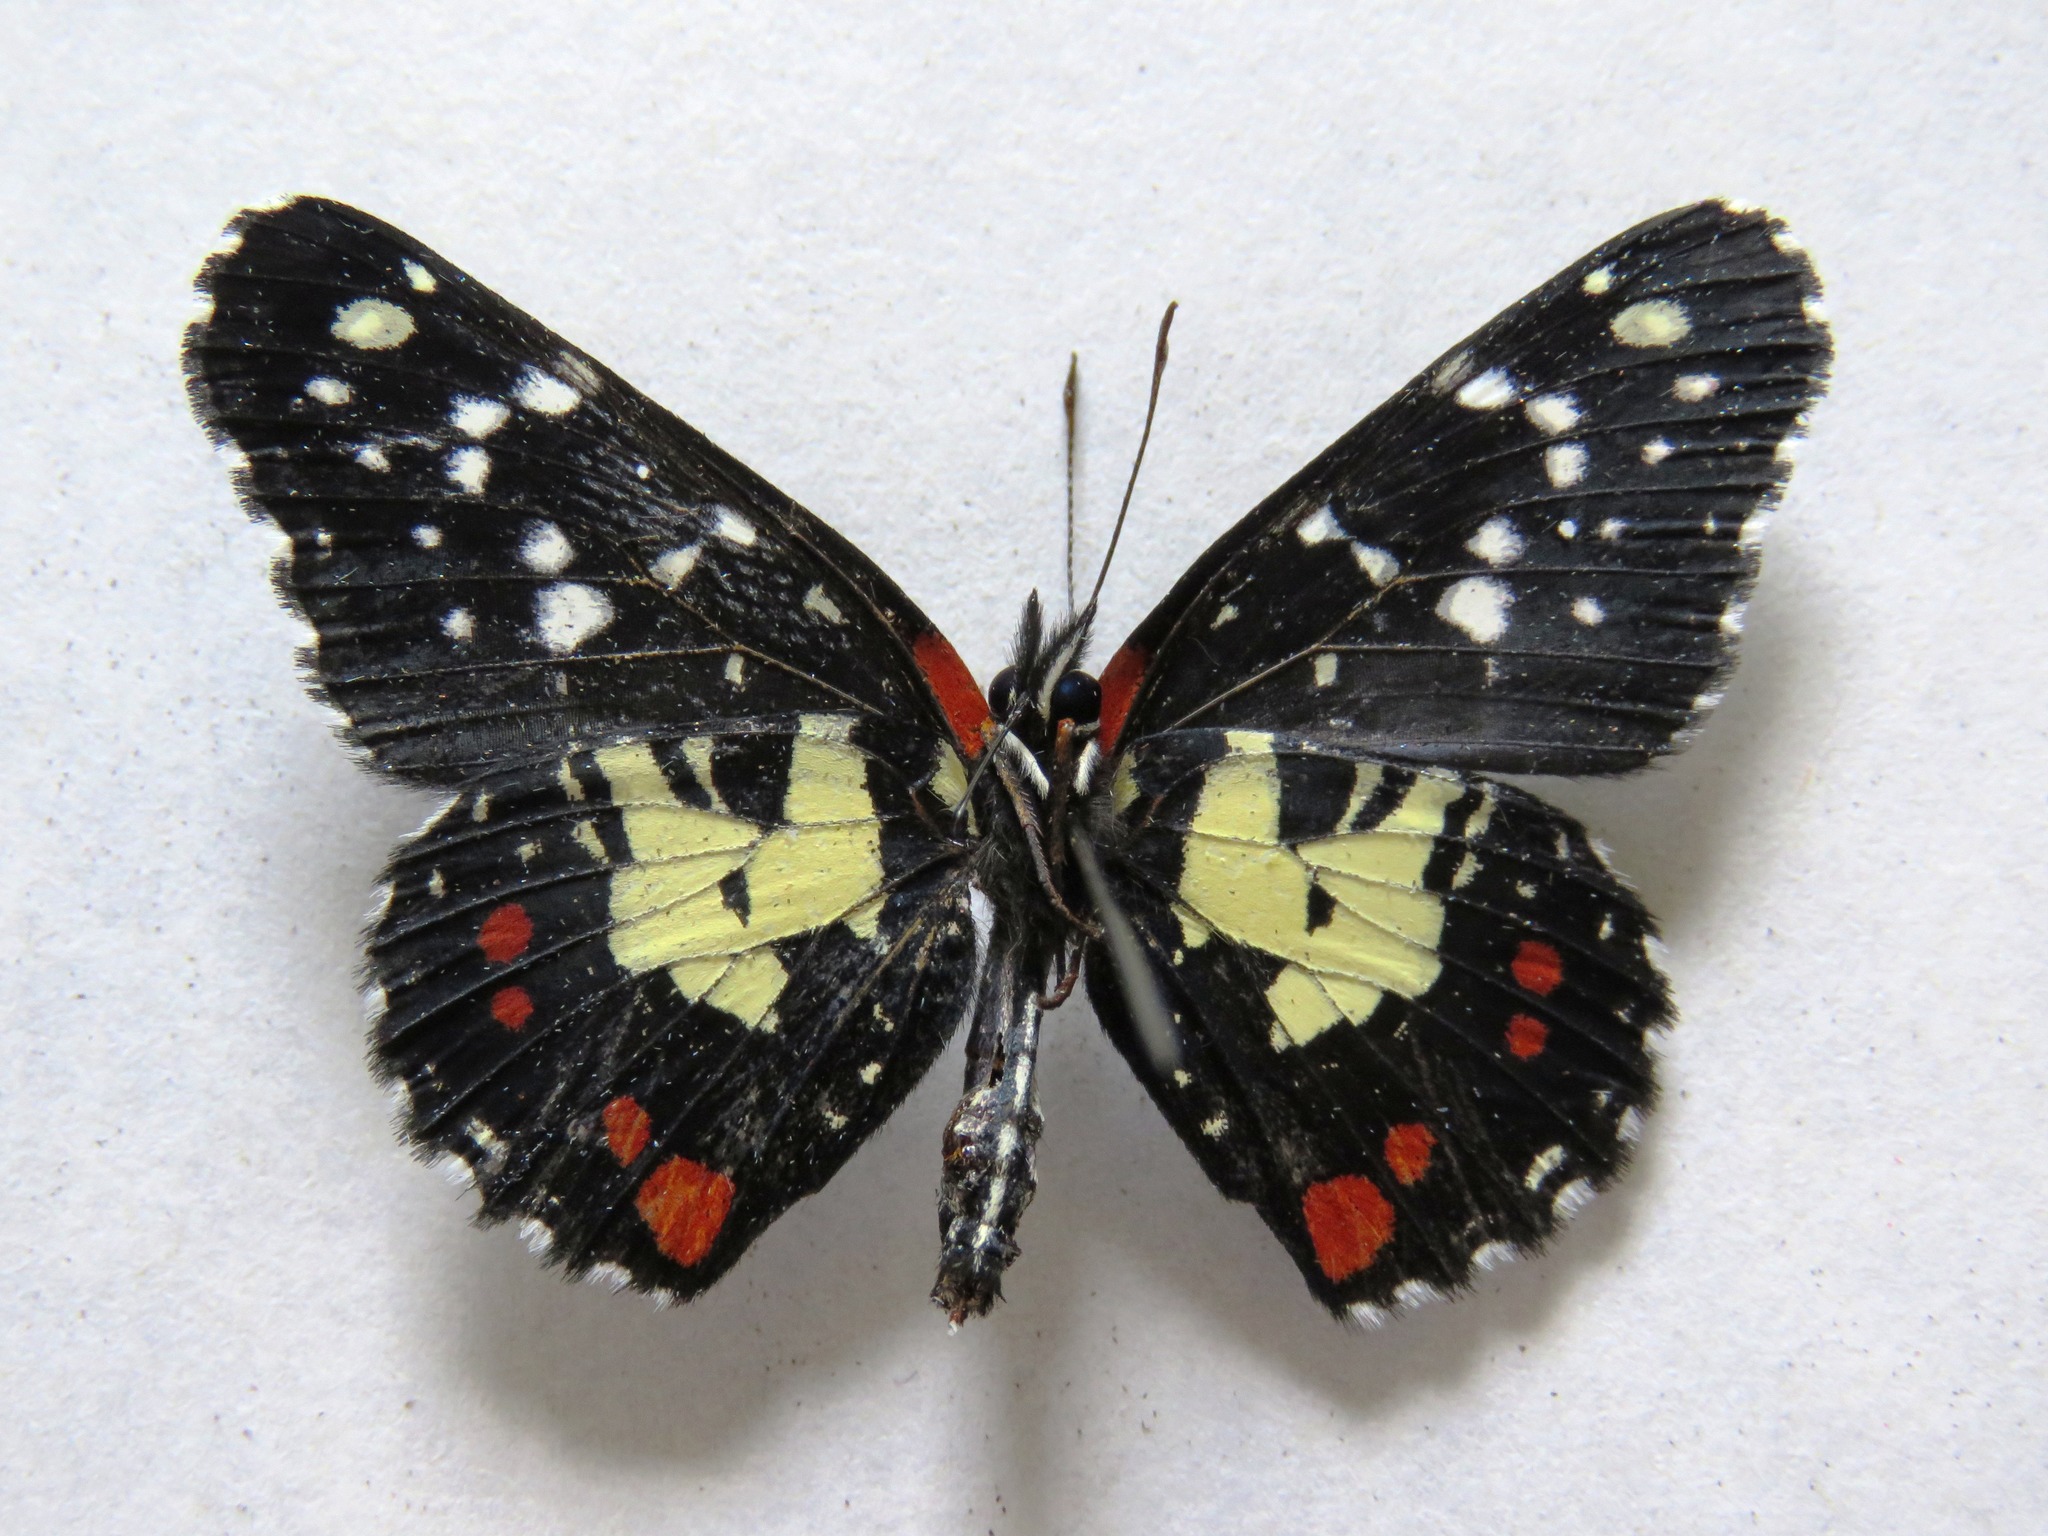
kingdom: Animalia
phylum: Arthropoda
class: Insecta
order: Lepidoptera
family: Nymphalidae
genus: Chlosyne
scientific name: Chlosyne erodyle
